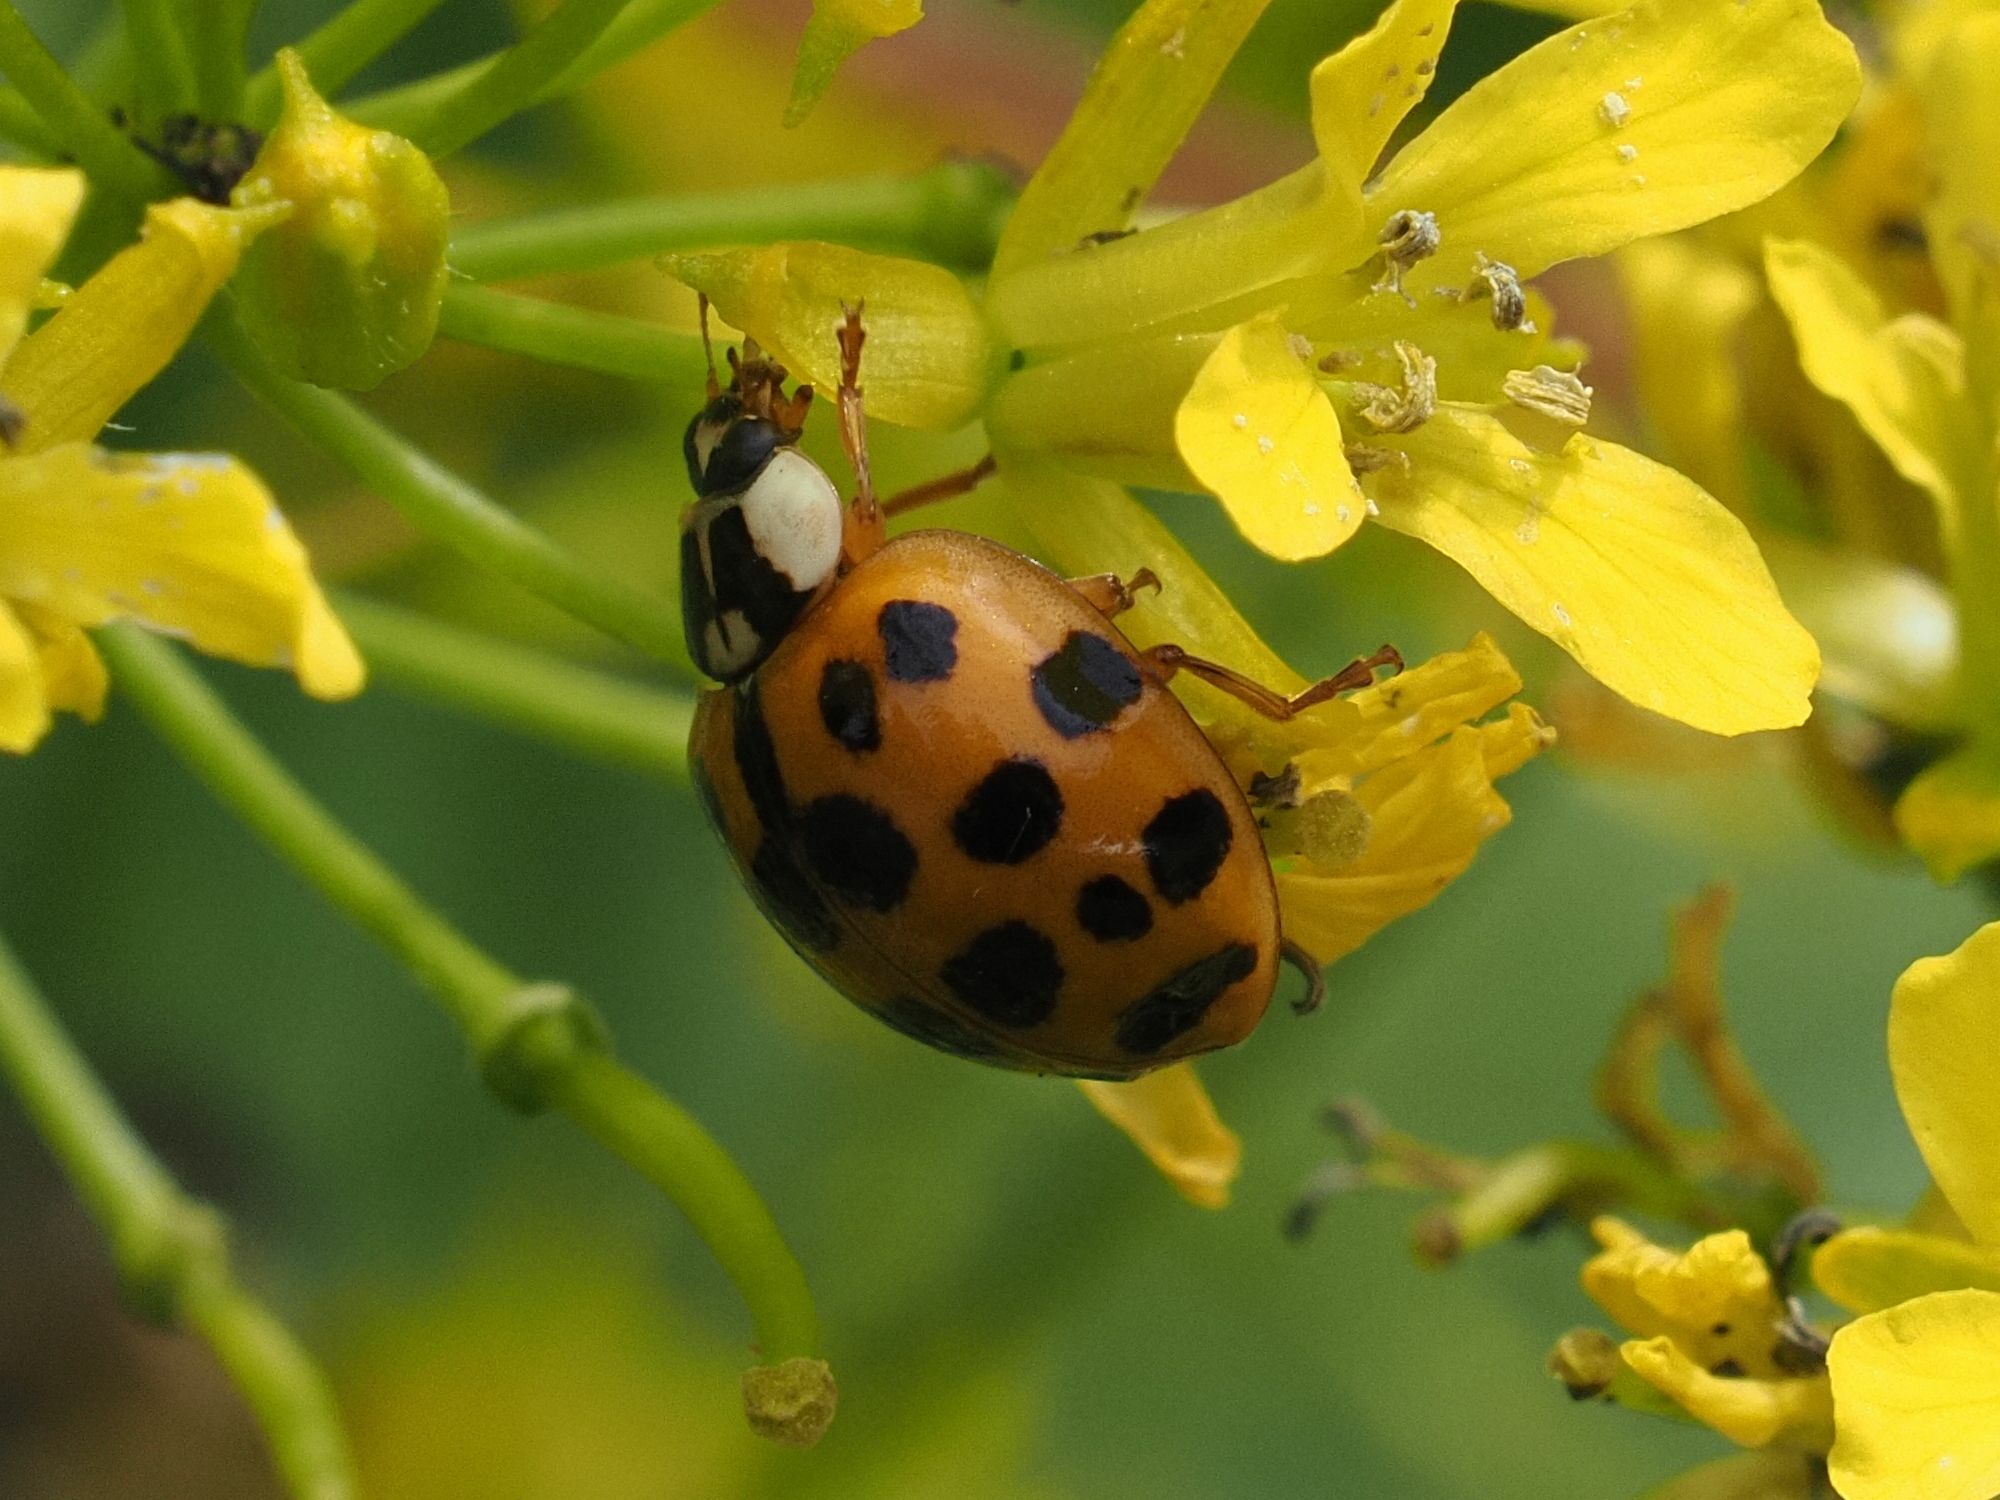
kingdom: Animalia
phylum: Arthropoda
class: Insecta
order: Coleoptera
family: Coccinellidae
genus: Harmonia
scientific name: Harmonia axyridis
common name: Harlequin ladybird
